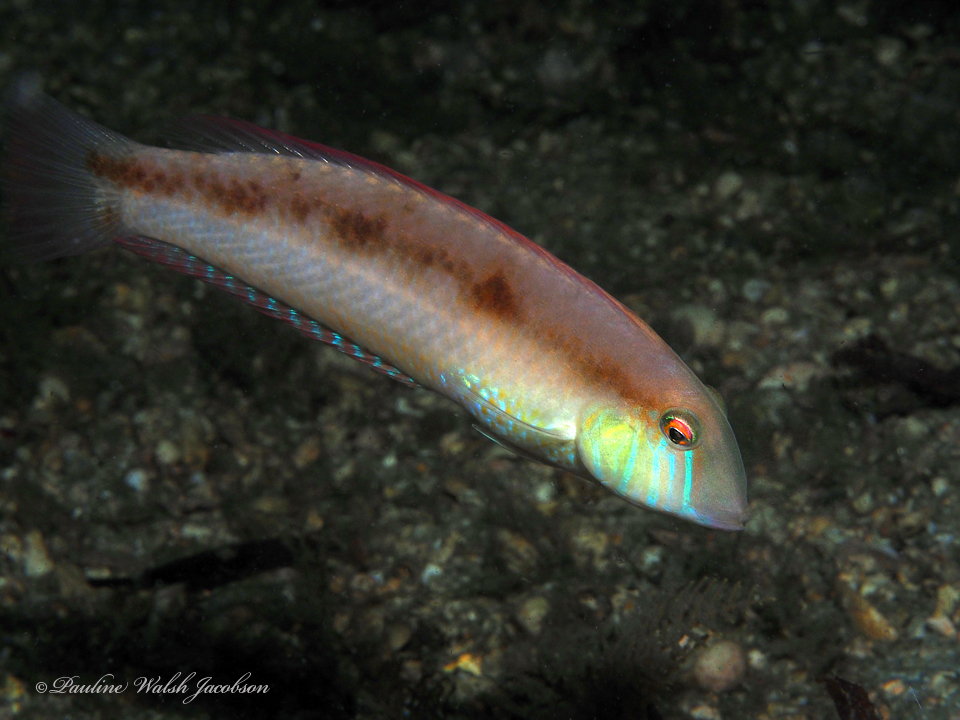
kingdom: Animalia
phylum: Chordata
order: Perciformes
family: Labridae
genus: Xyrichtys
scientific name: Xyrichtys novacula
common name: Pearly razorfish
